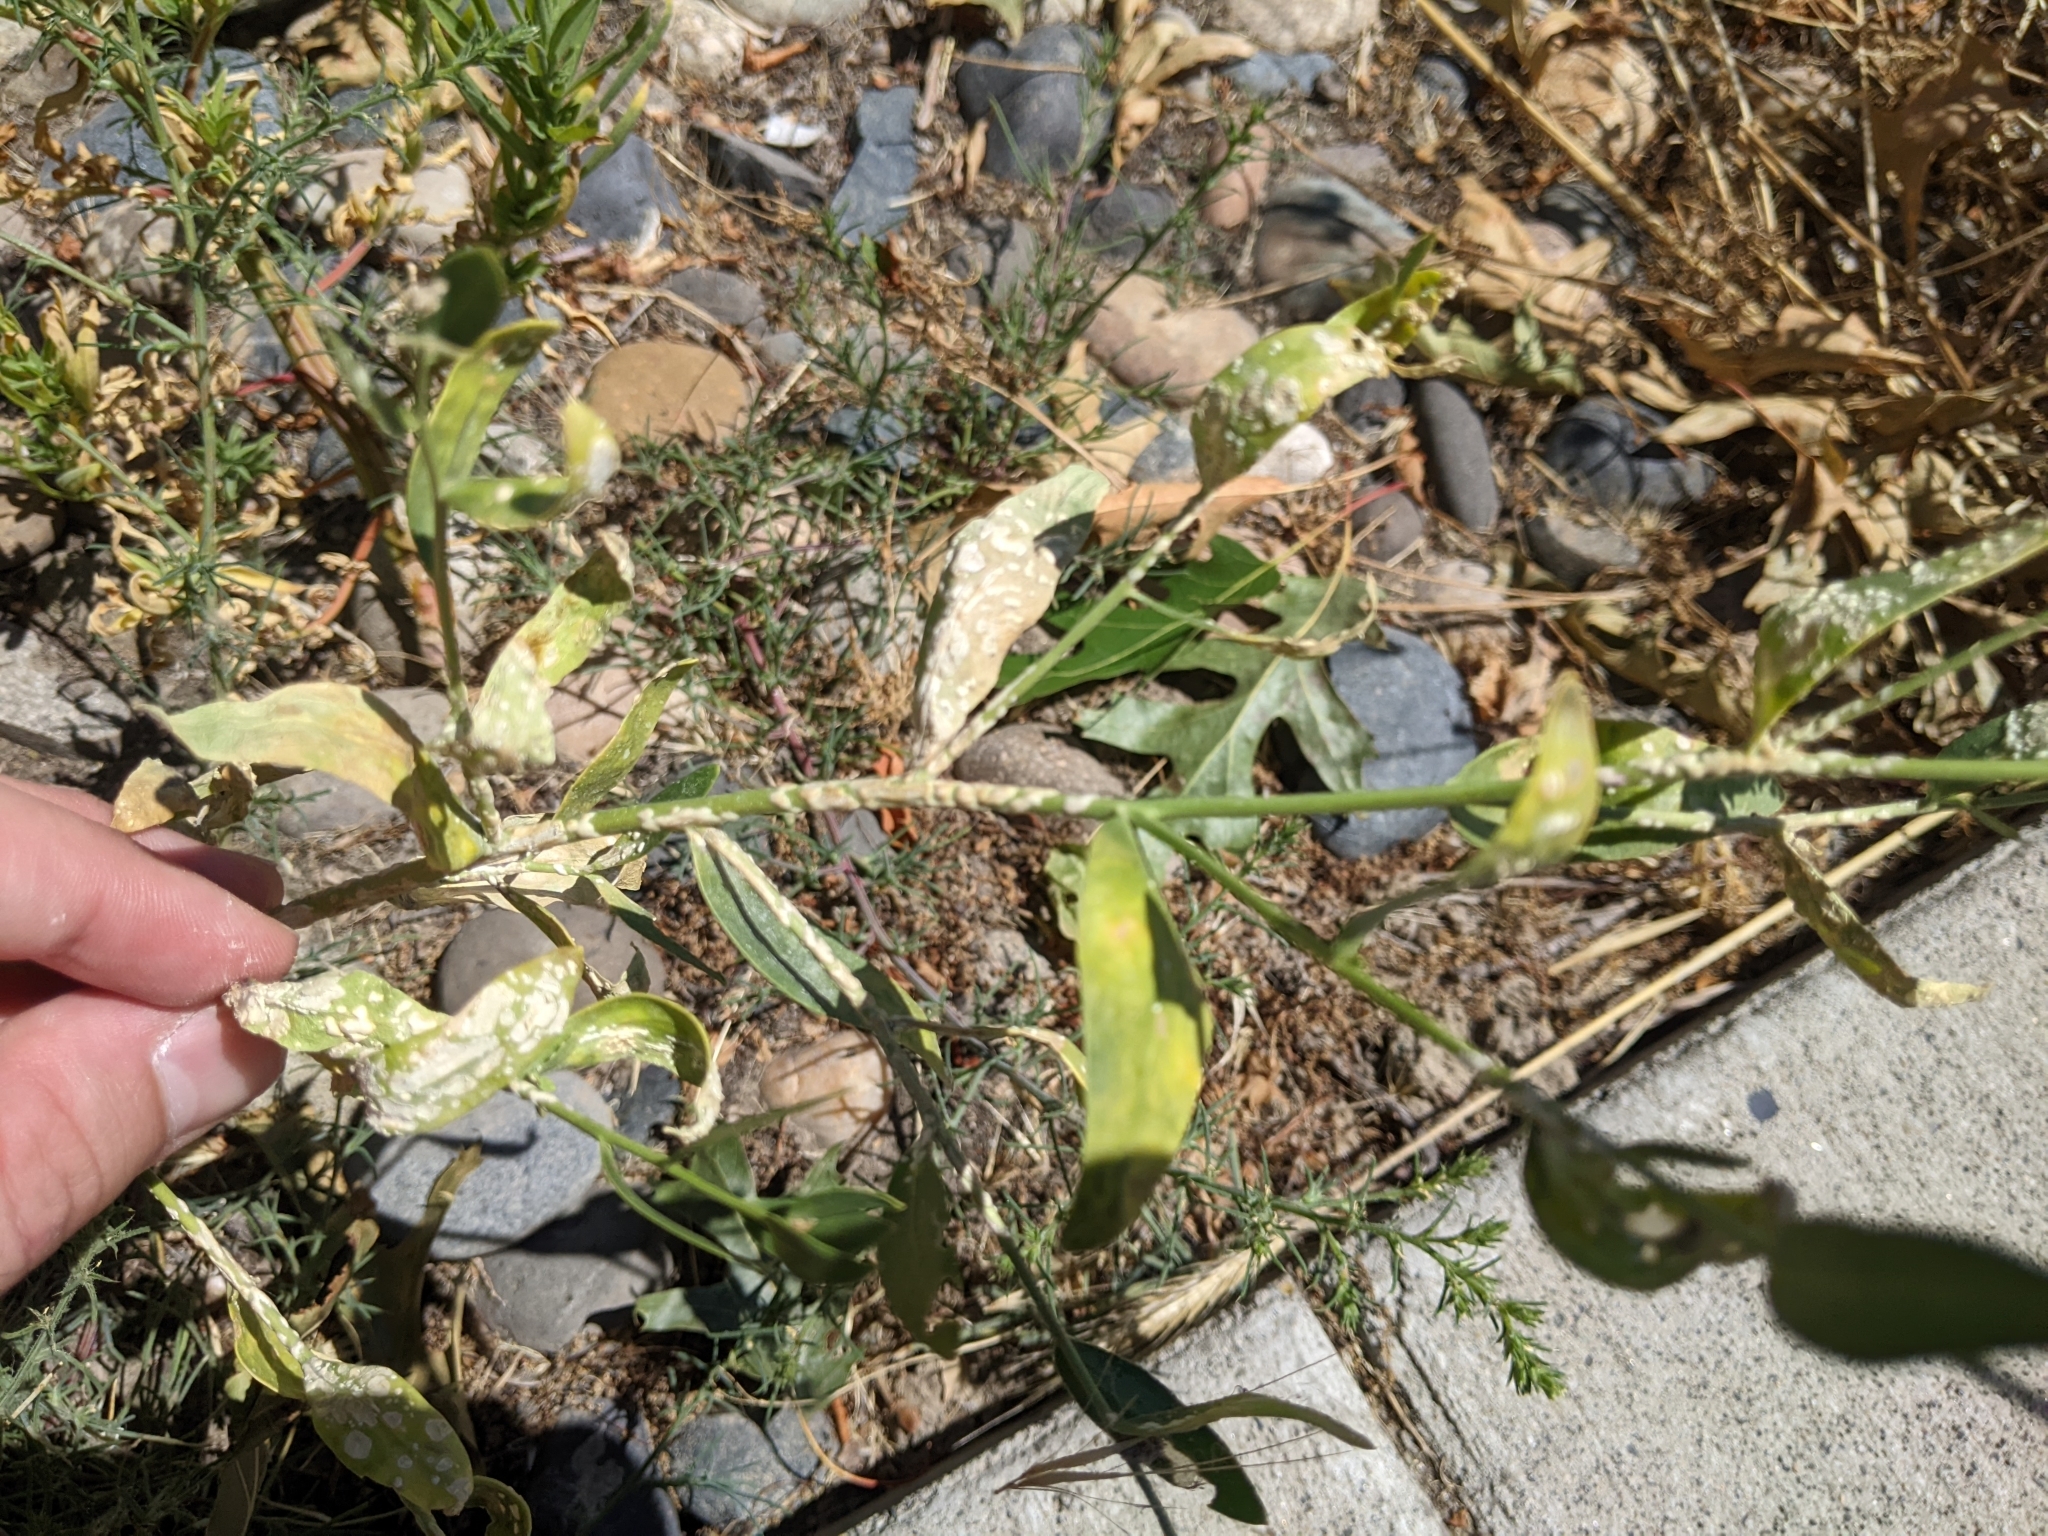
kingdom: Chromista
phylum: Oomycota
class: Peronosporea
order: Albuginales
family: Albuginaceae
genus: Albugo
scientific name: Albugo candida
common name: Crucifer white blister
